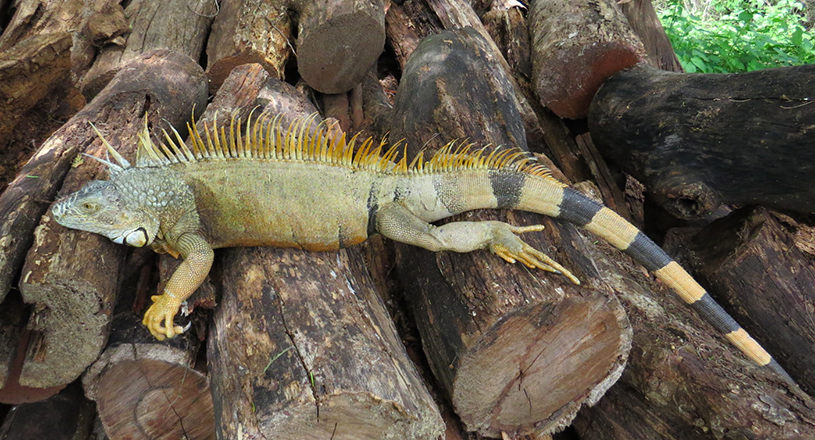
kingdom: Animalia
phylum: Chordata
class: Squamata
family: Iguanidae
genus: Iguana
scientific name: Iguana iguana
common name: Green iguana
